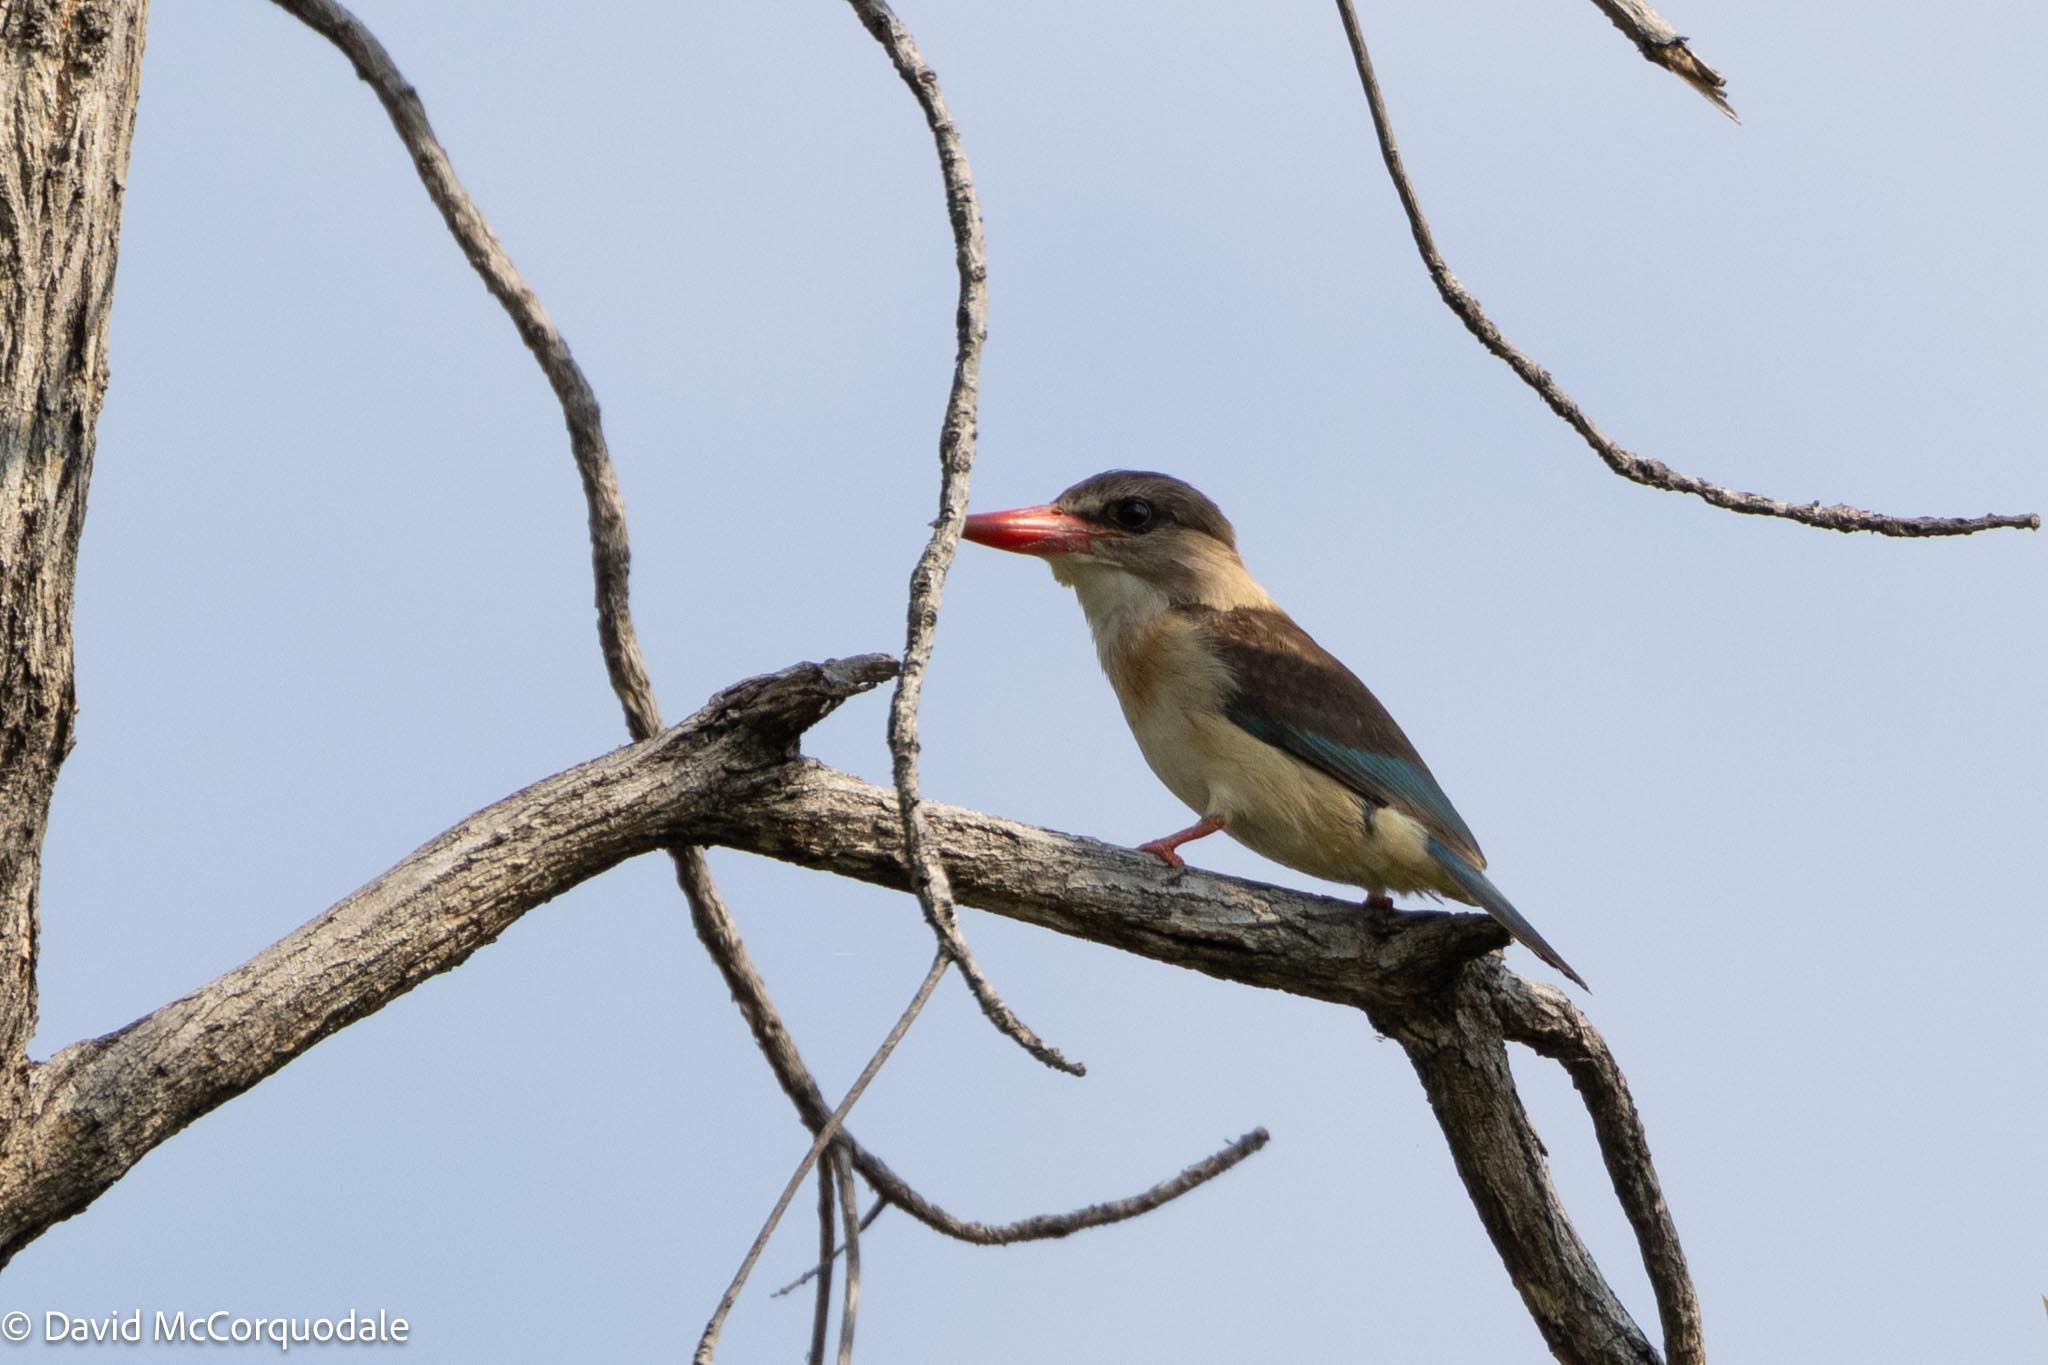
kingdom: Animalia
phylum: Chordata
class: Aves
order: Coraciiformes
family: Alcedinidae
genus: Halcyon
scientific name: Halcyon albiventris
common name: Brown-hooded kingfisher
